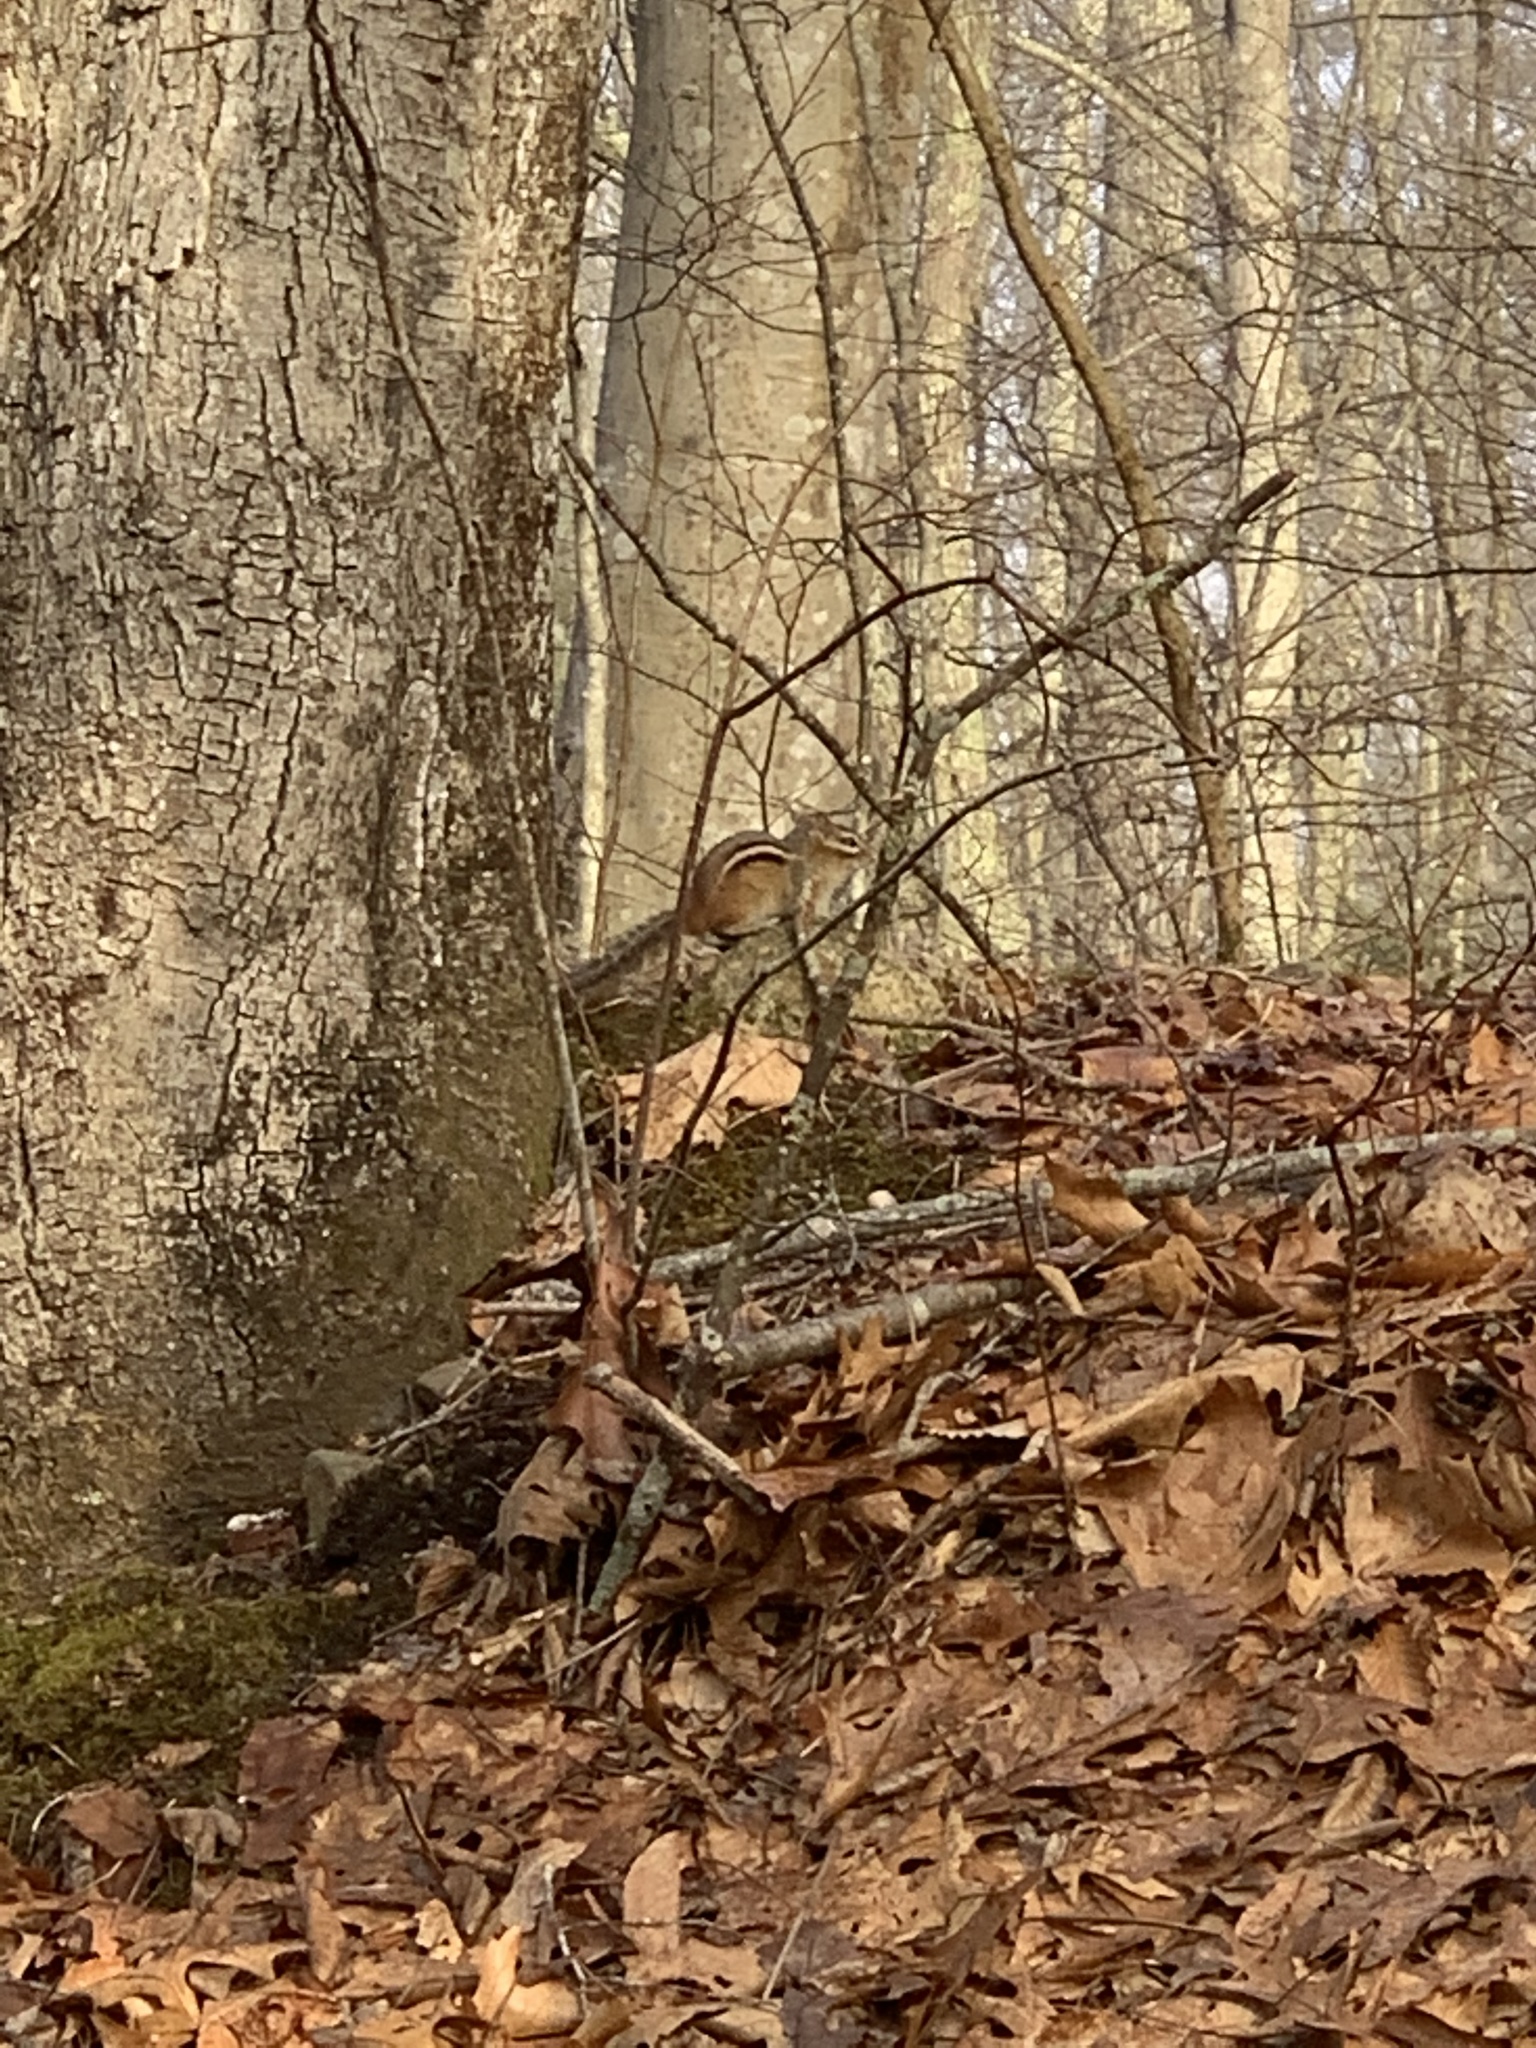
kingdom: Animalia
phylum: Chordata
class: Mammalia
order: Rodentia
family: Sciuridae
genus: Tamias
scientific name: Tamias striatus
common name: Eastern chipmunk
